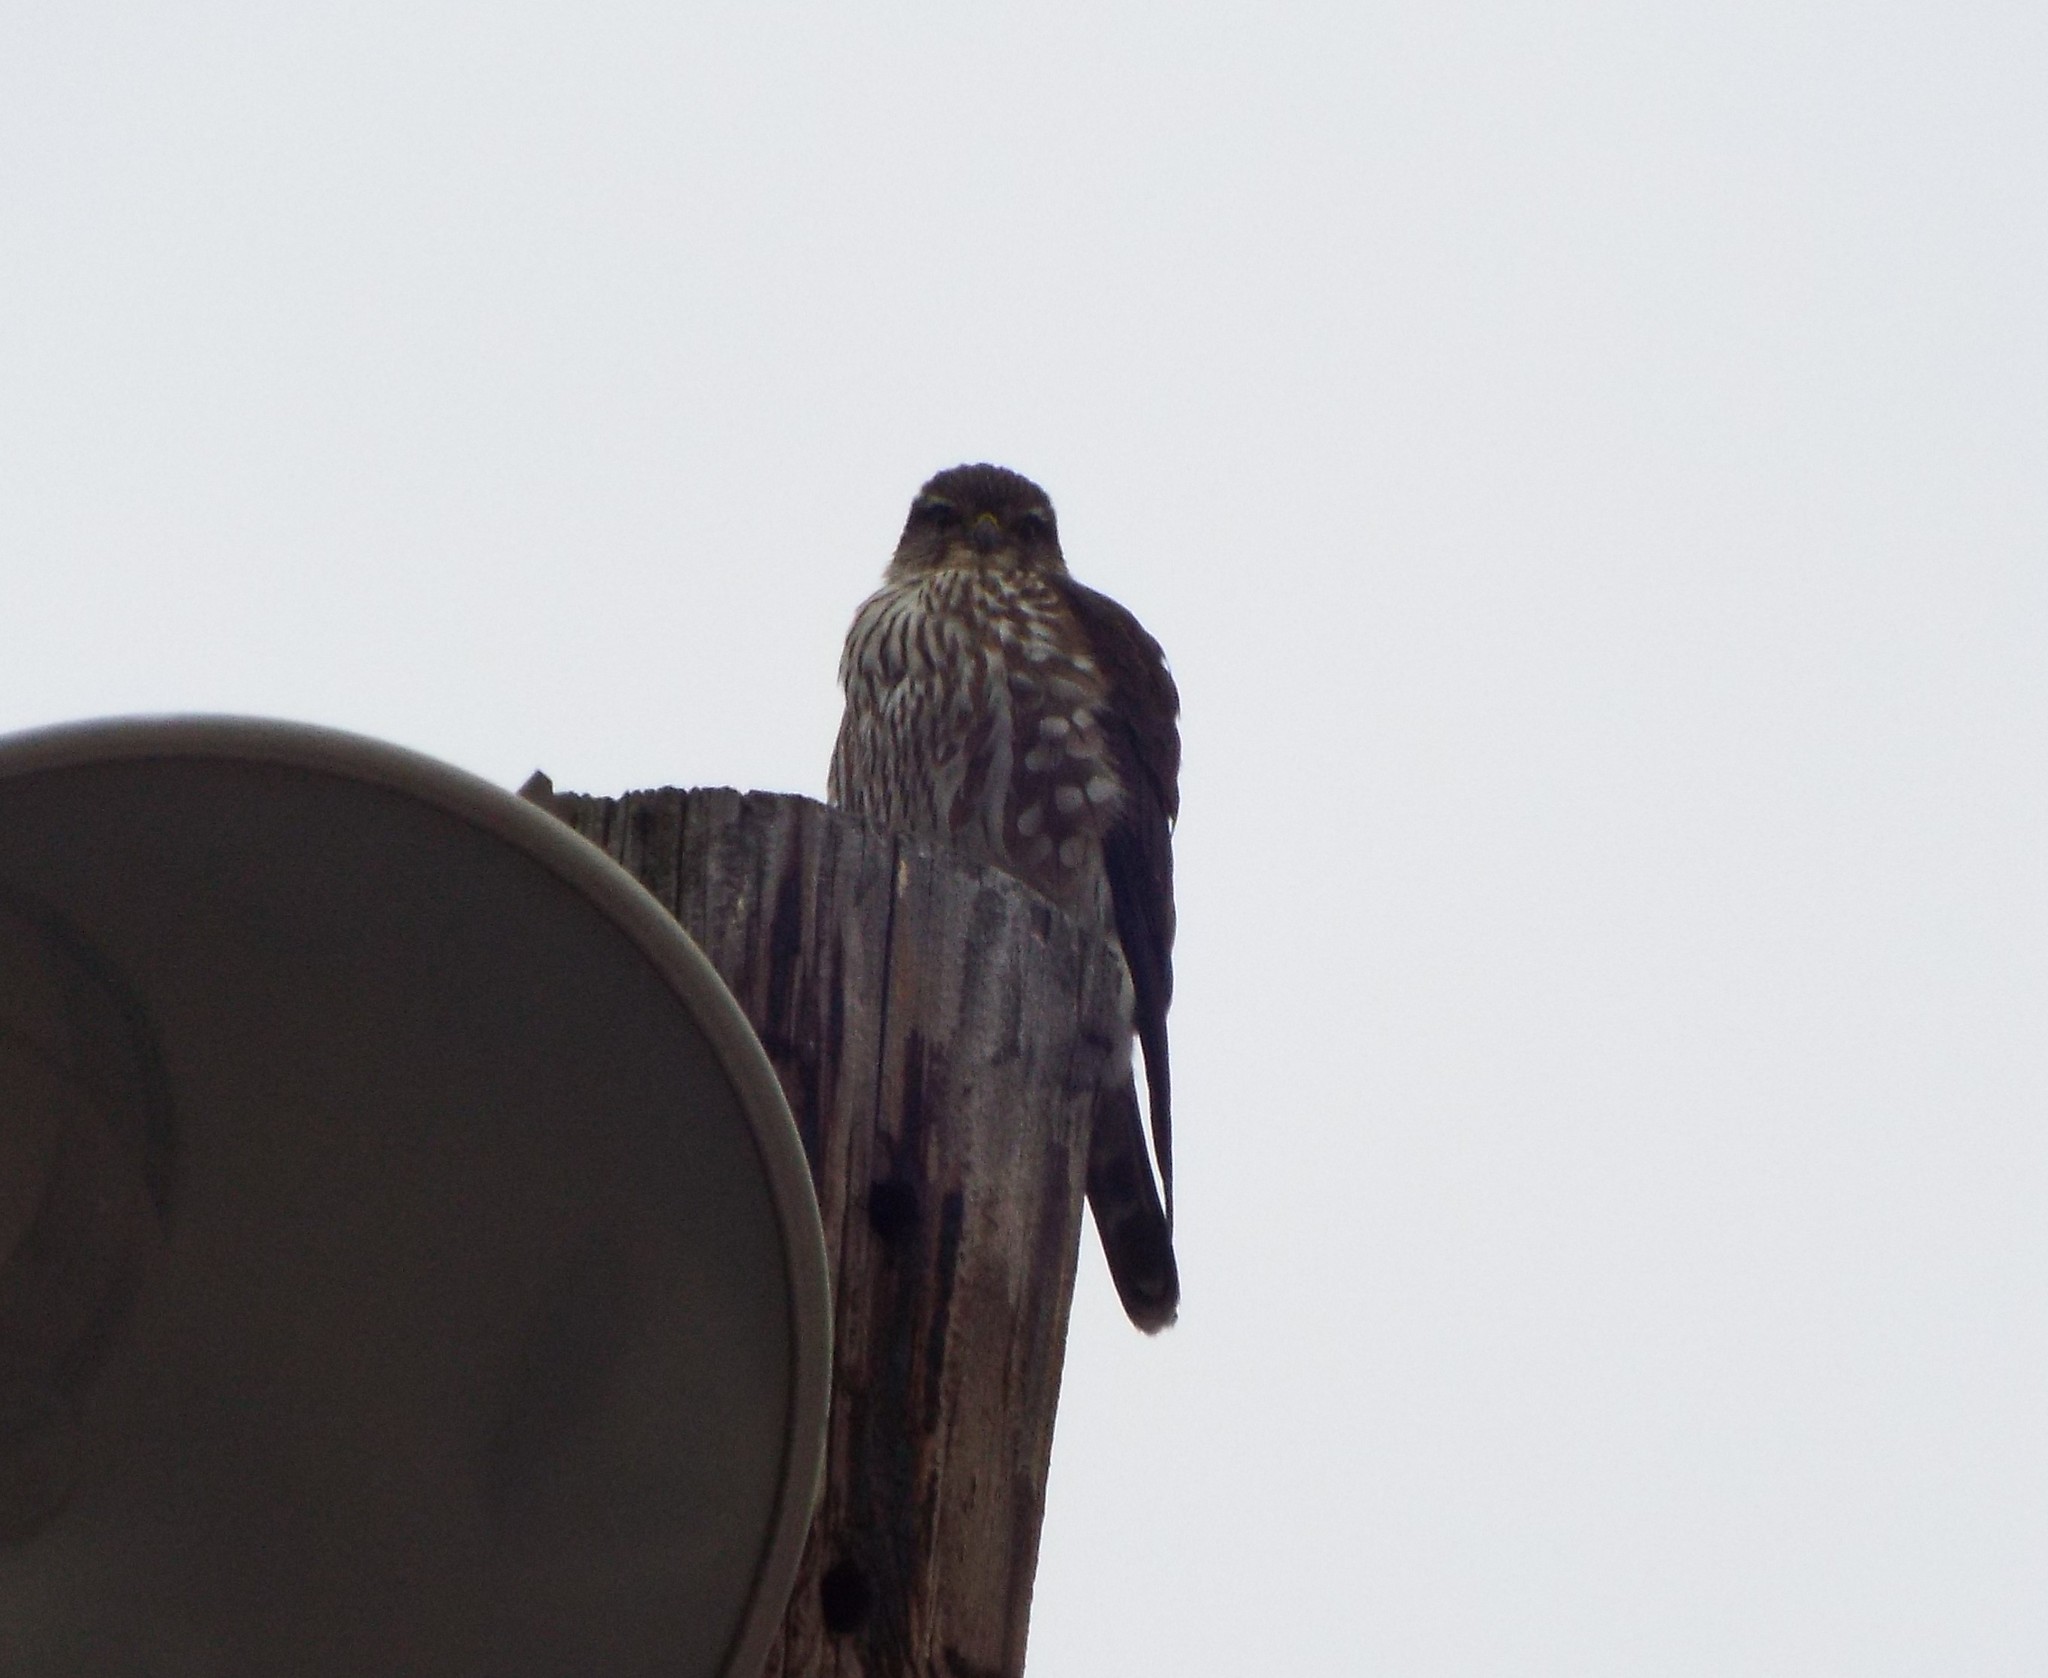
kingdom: Animalia
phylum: Chordata
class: Aves
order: Falconiformes
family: Falconidae
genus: Falco
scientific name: Falco columbarius
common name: Merlin
